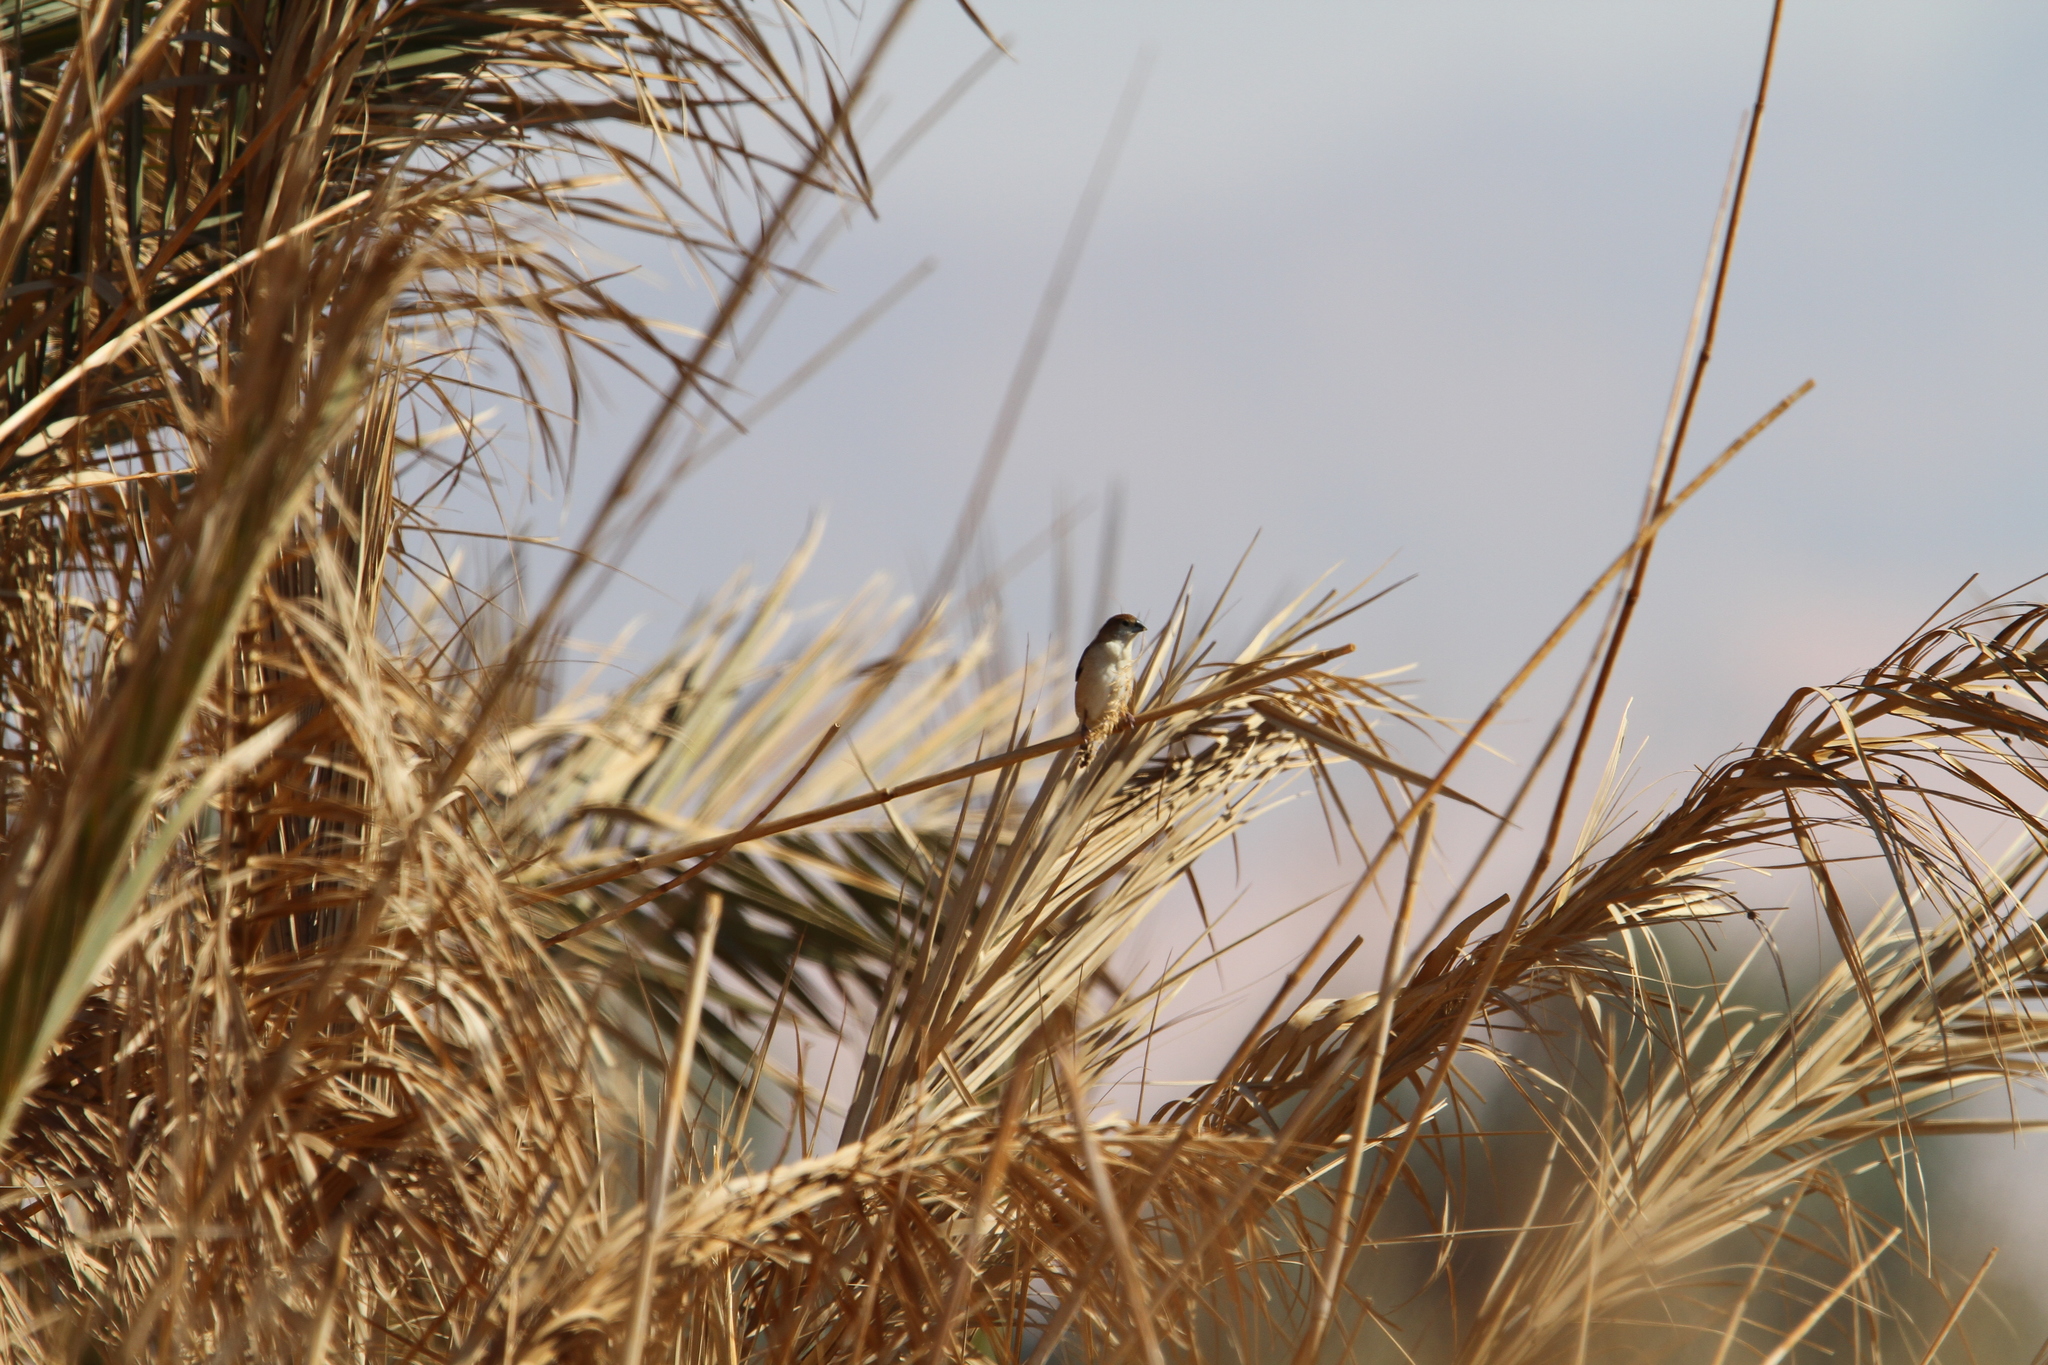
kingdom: Animalia
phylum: Chordata
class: Aves
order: Passeriformes
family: Estrildidae
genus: Euodice
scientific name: Euodice malabarica
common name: Indian silverbill
